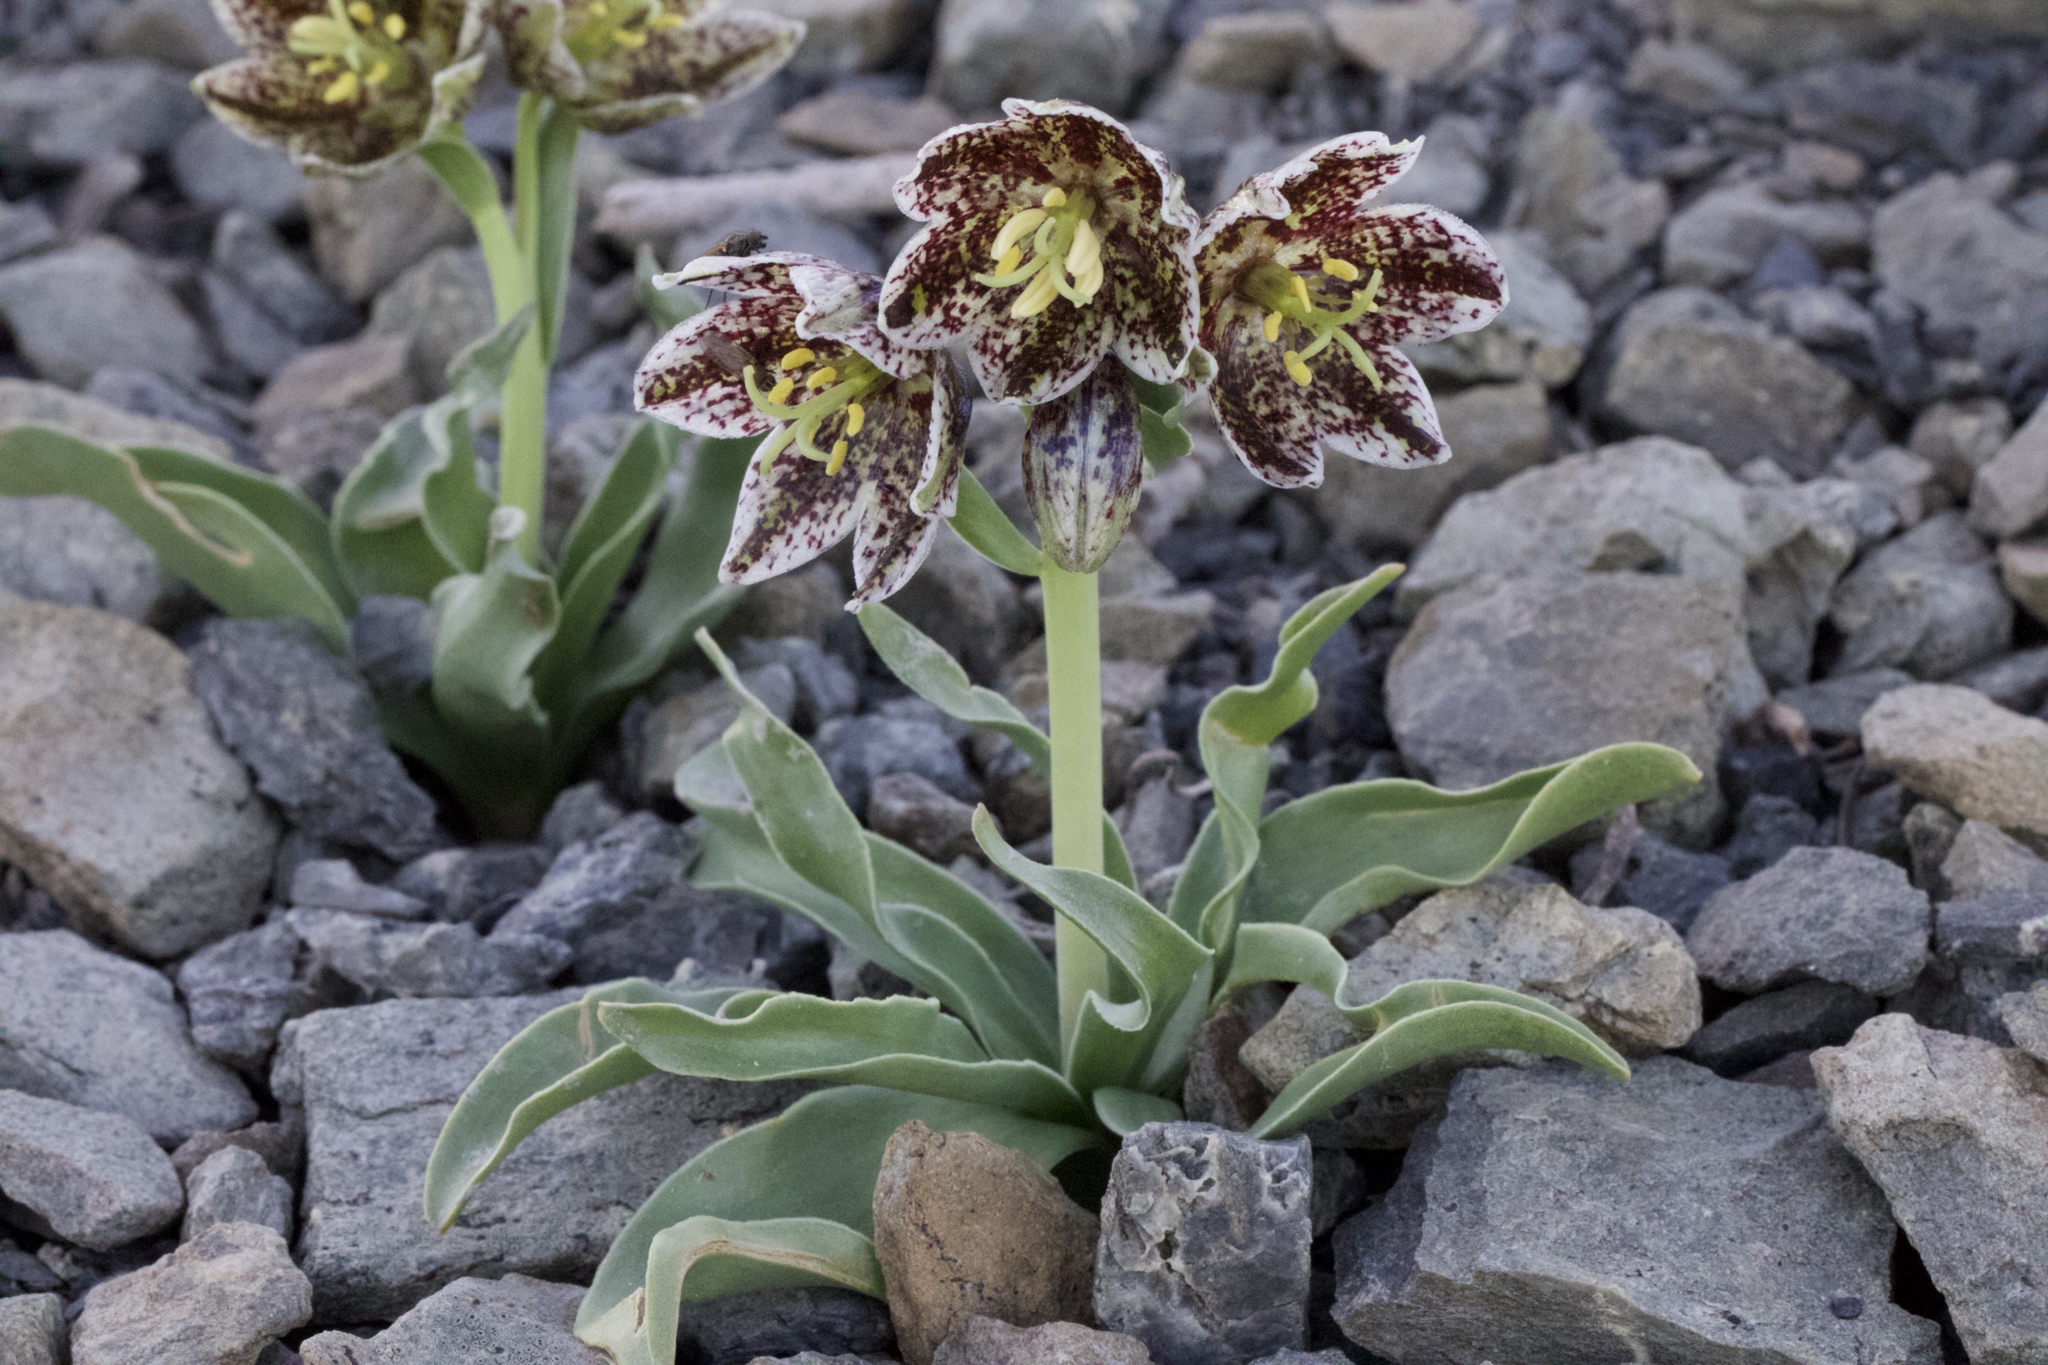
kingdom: Plantae
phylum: Tracheophyta
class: Liliopsida
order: Liliales
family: Liliaceae
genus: Fritillaria
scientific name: Fritillaria purdyi
